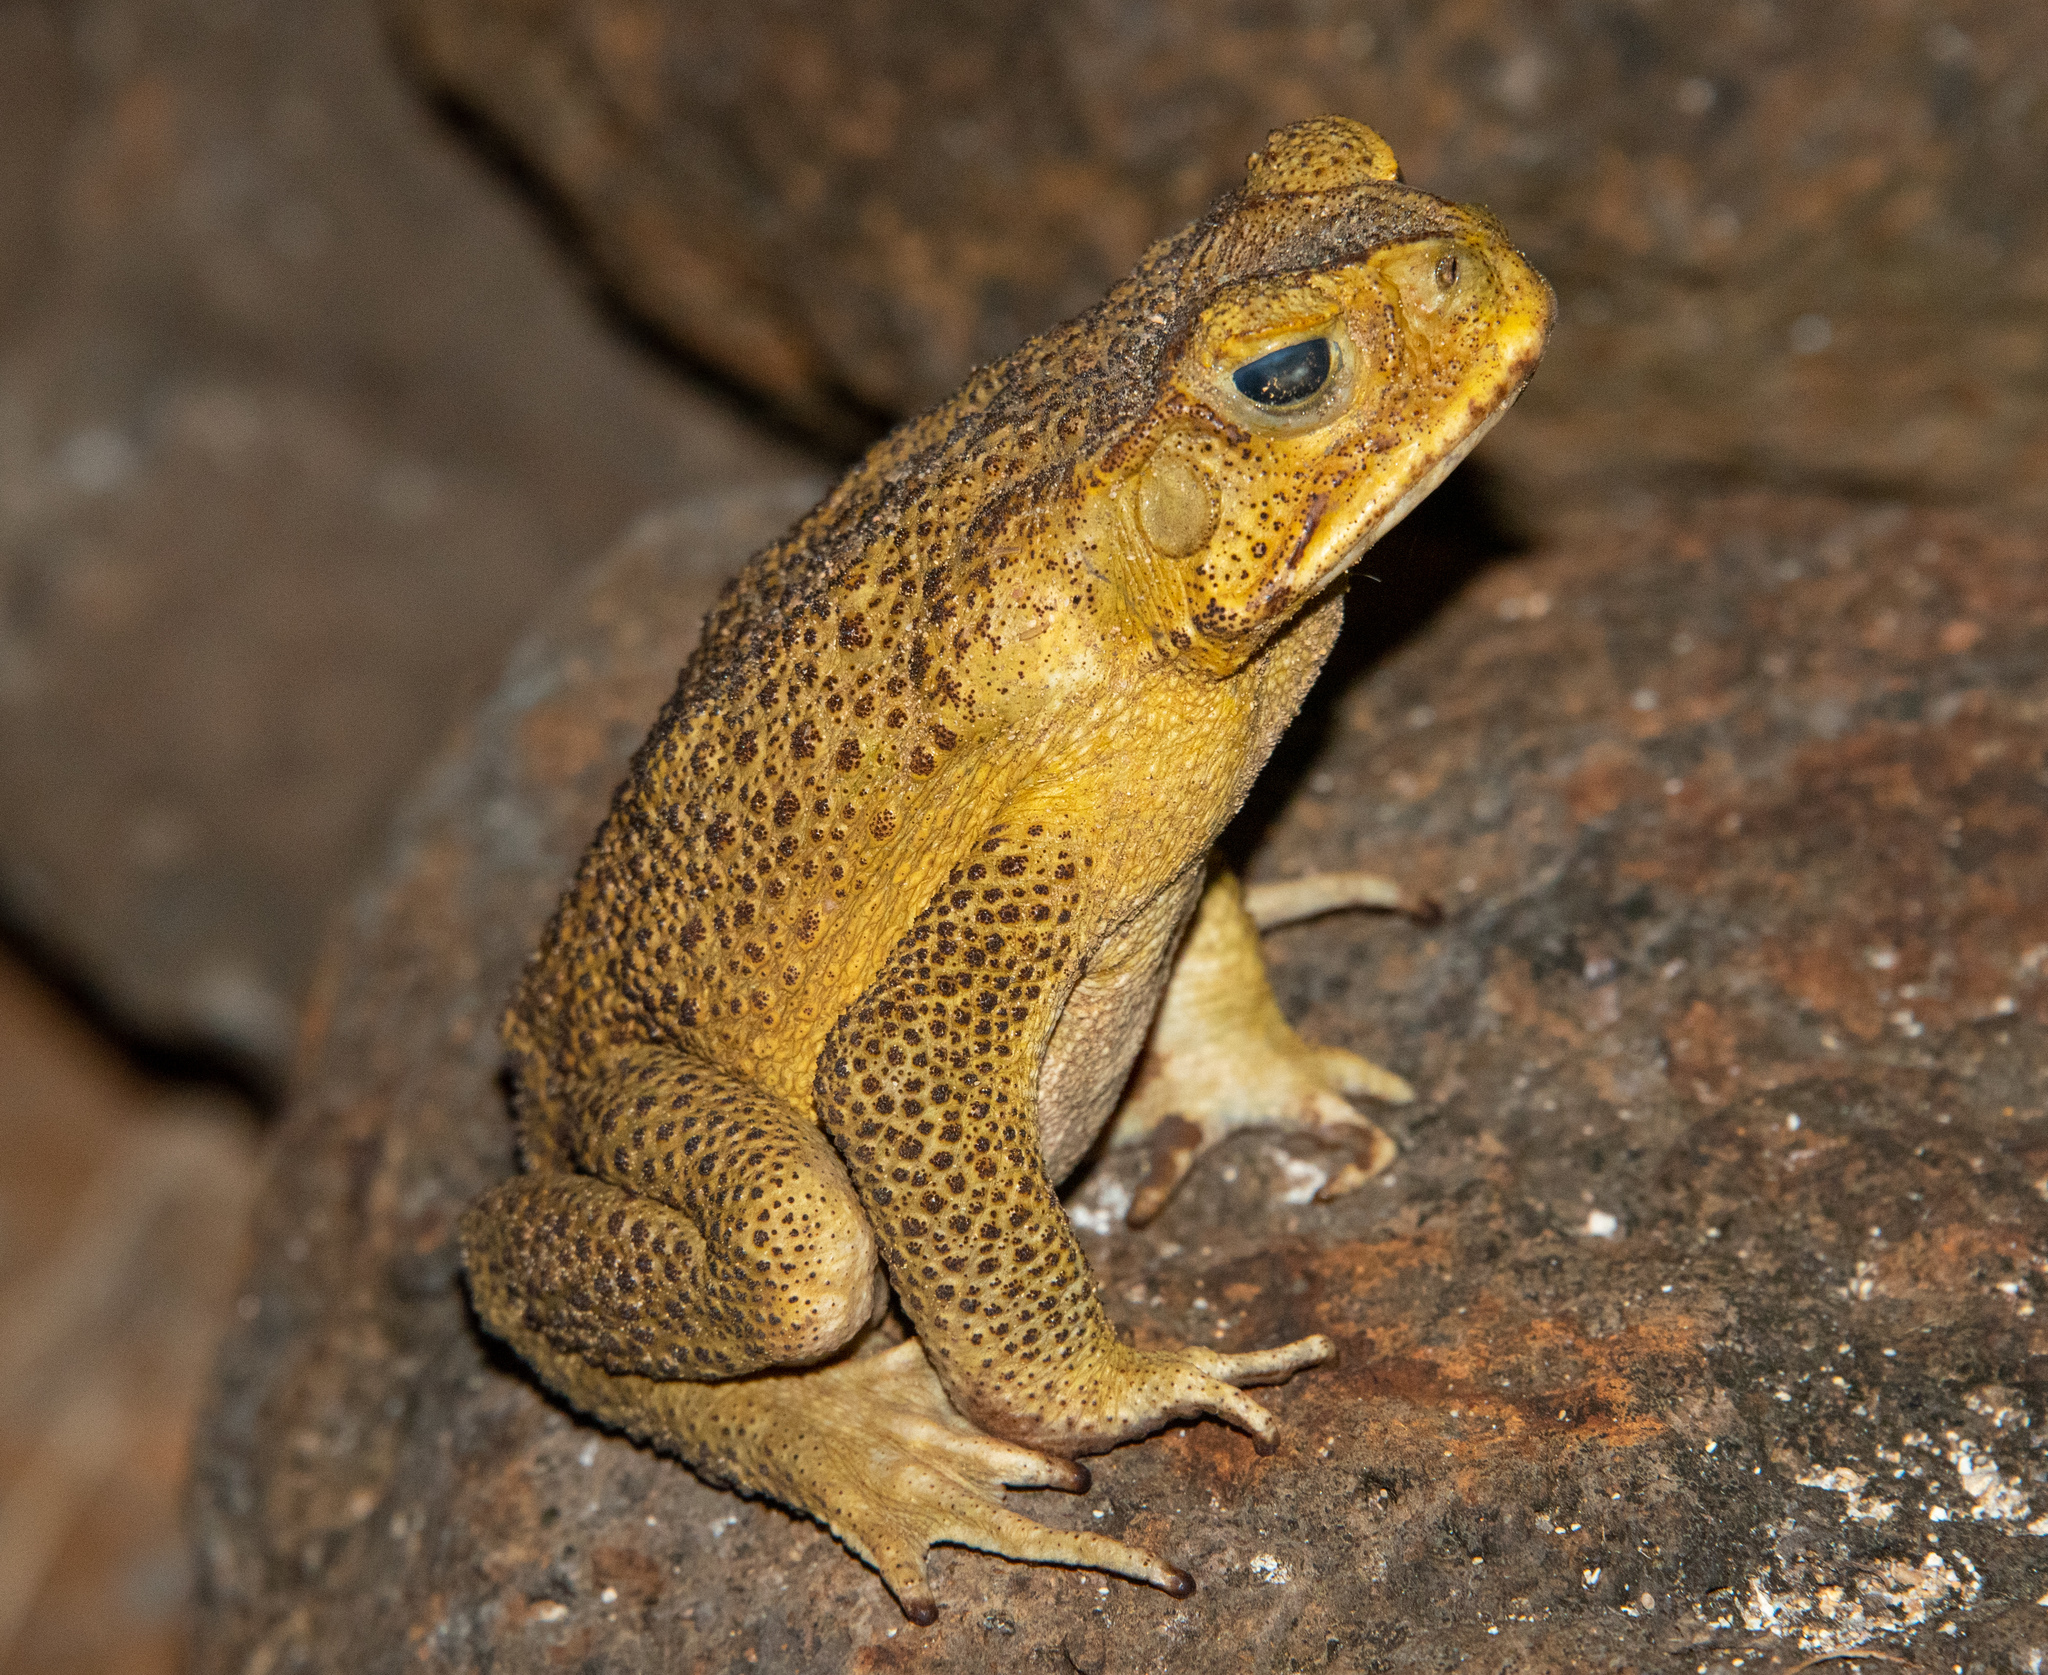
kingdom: Animalia
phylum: Chordata
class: Amphibia
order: Anura
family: Bufonidae
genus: Rhinella
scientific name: Rhinella marina
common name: Cane toad
